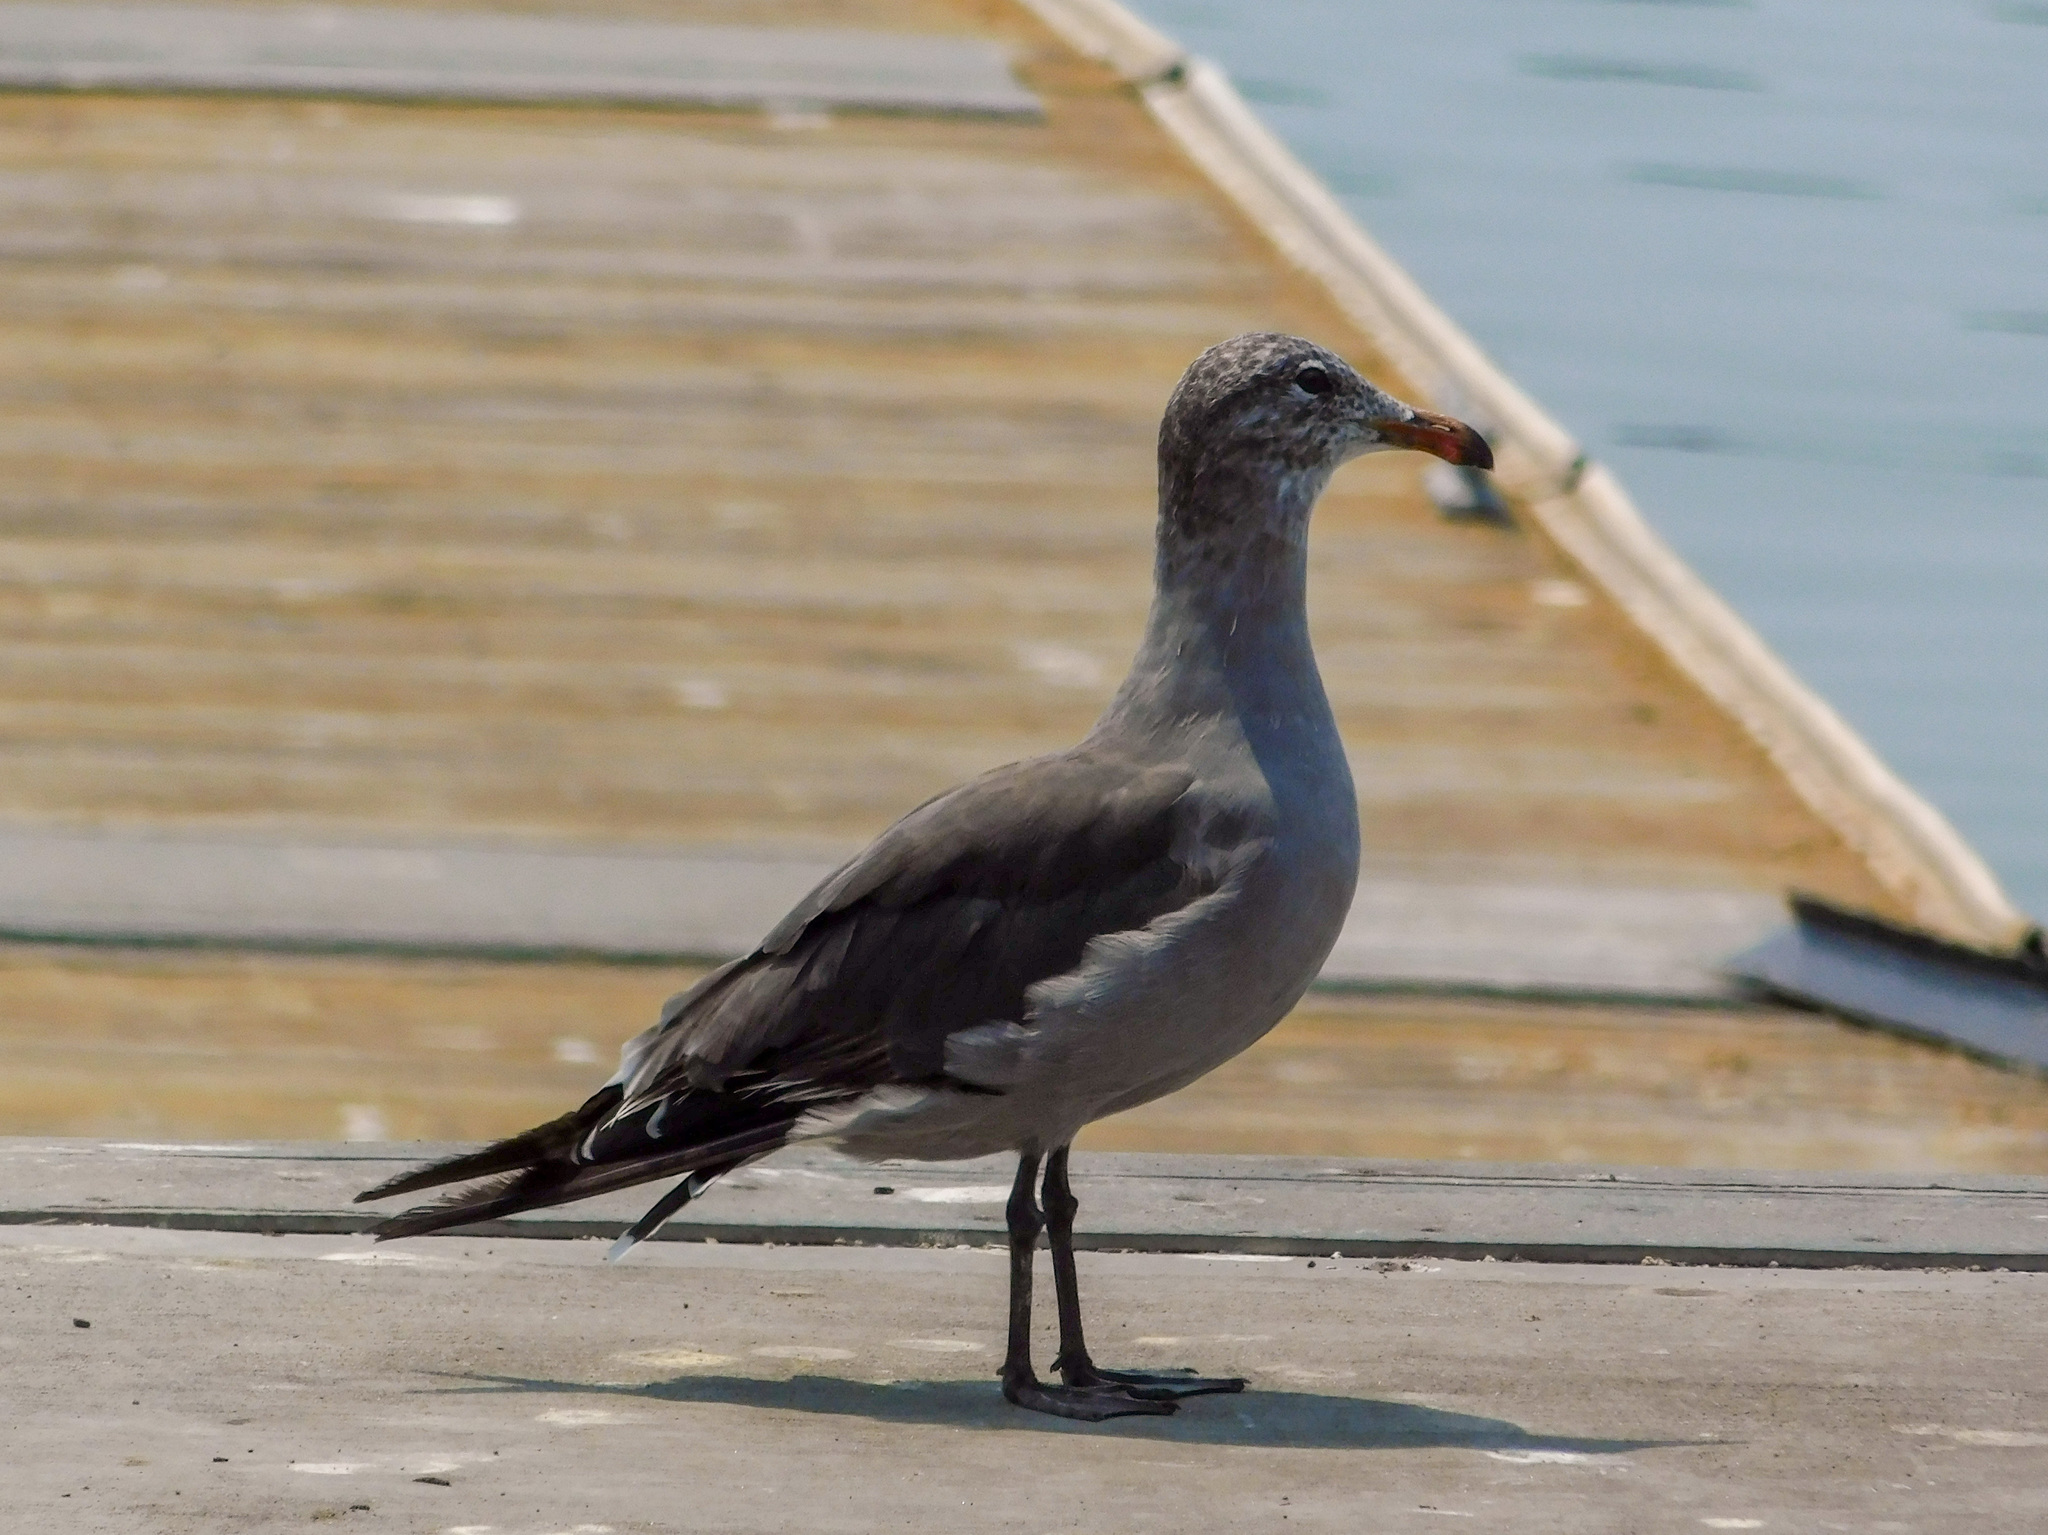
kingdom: Animalia
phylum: Chordata
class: Aves
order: Charadriiformes
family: Laridae
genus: Larus
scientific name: Larus heermanni
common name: Heermann's gull
